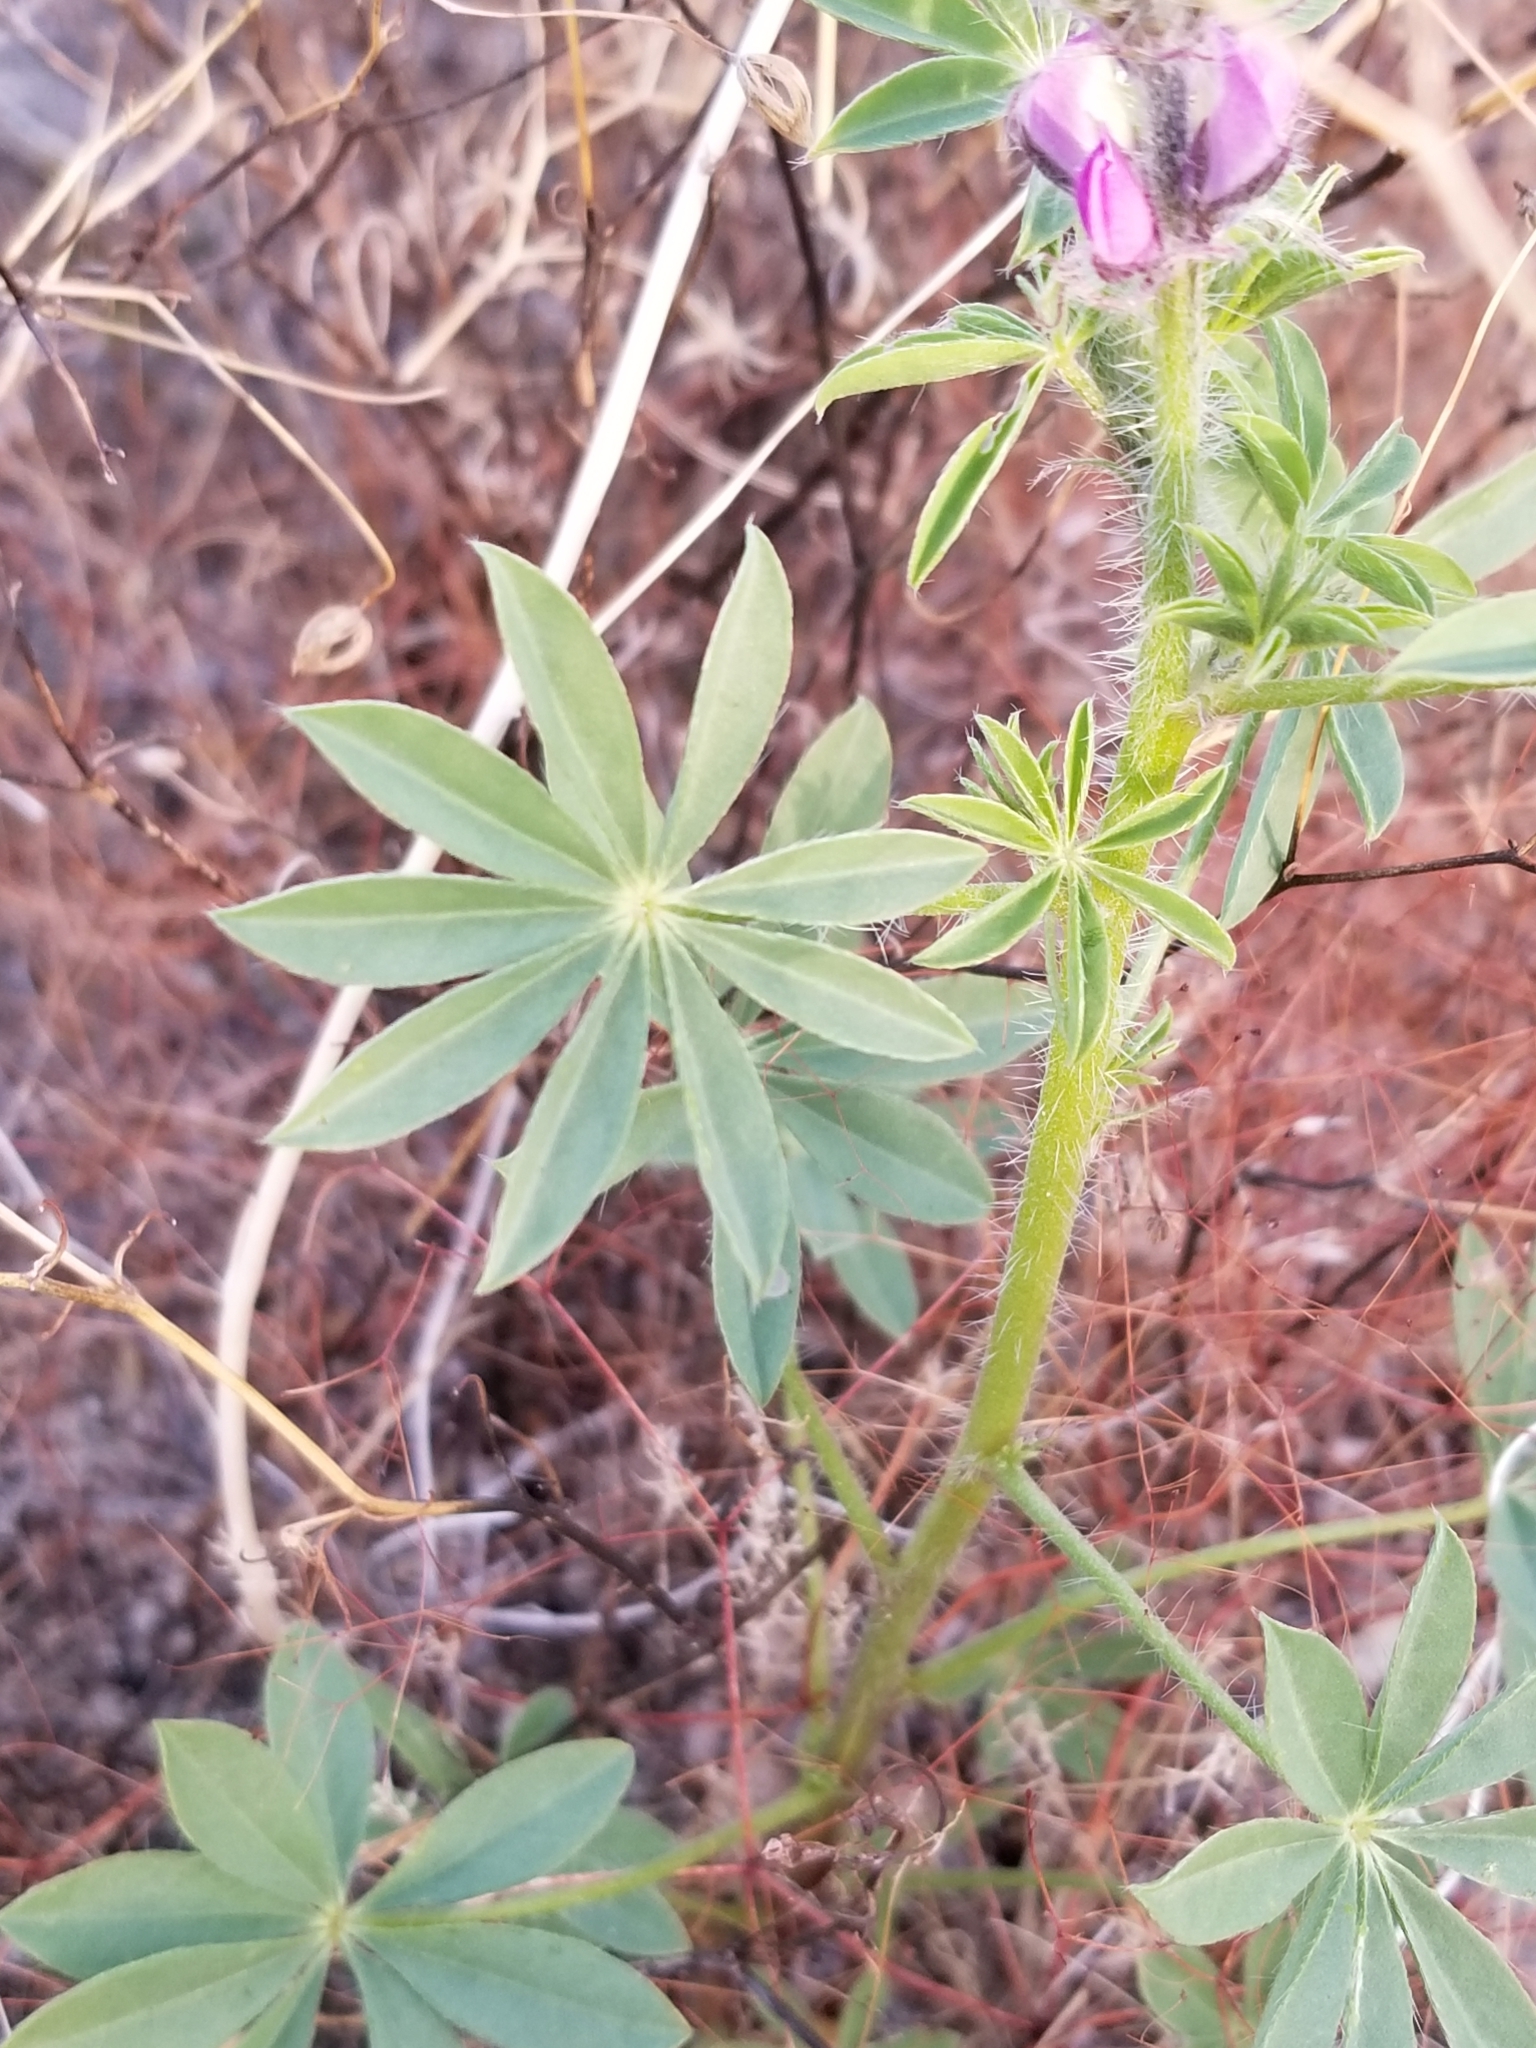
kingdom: Plantae
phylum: Tracheophyta
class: Magnoliopsida
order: Fabales
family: Fabaceae
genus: Lupinus
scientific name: Lupinus arizonicus
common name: Arizona lupine
